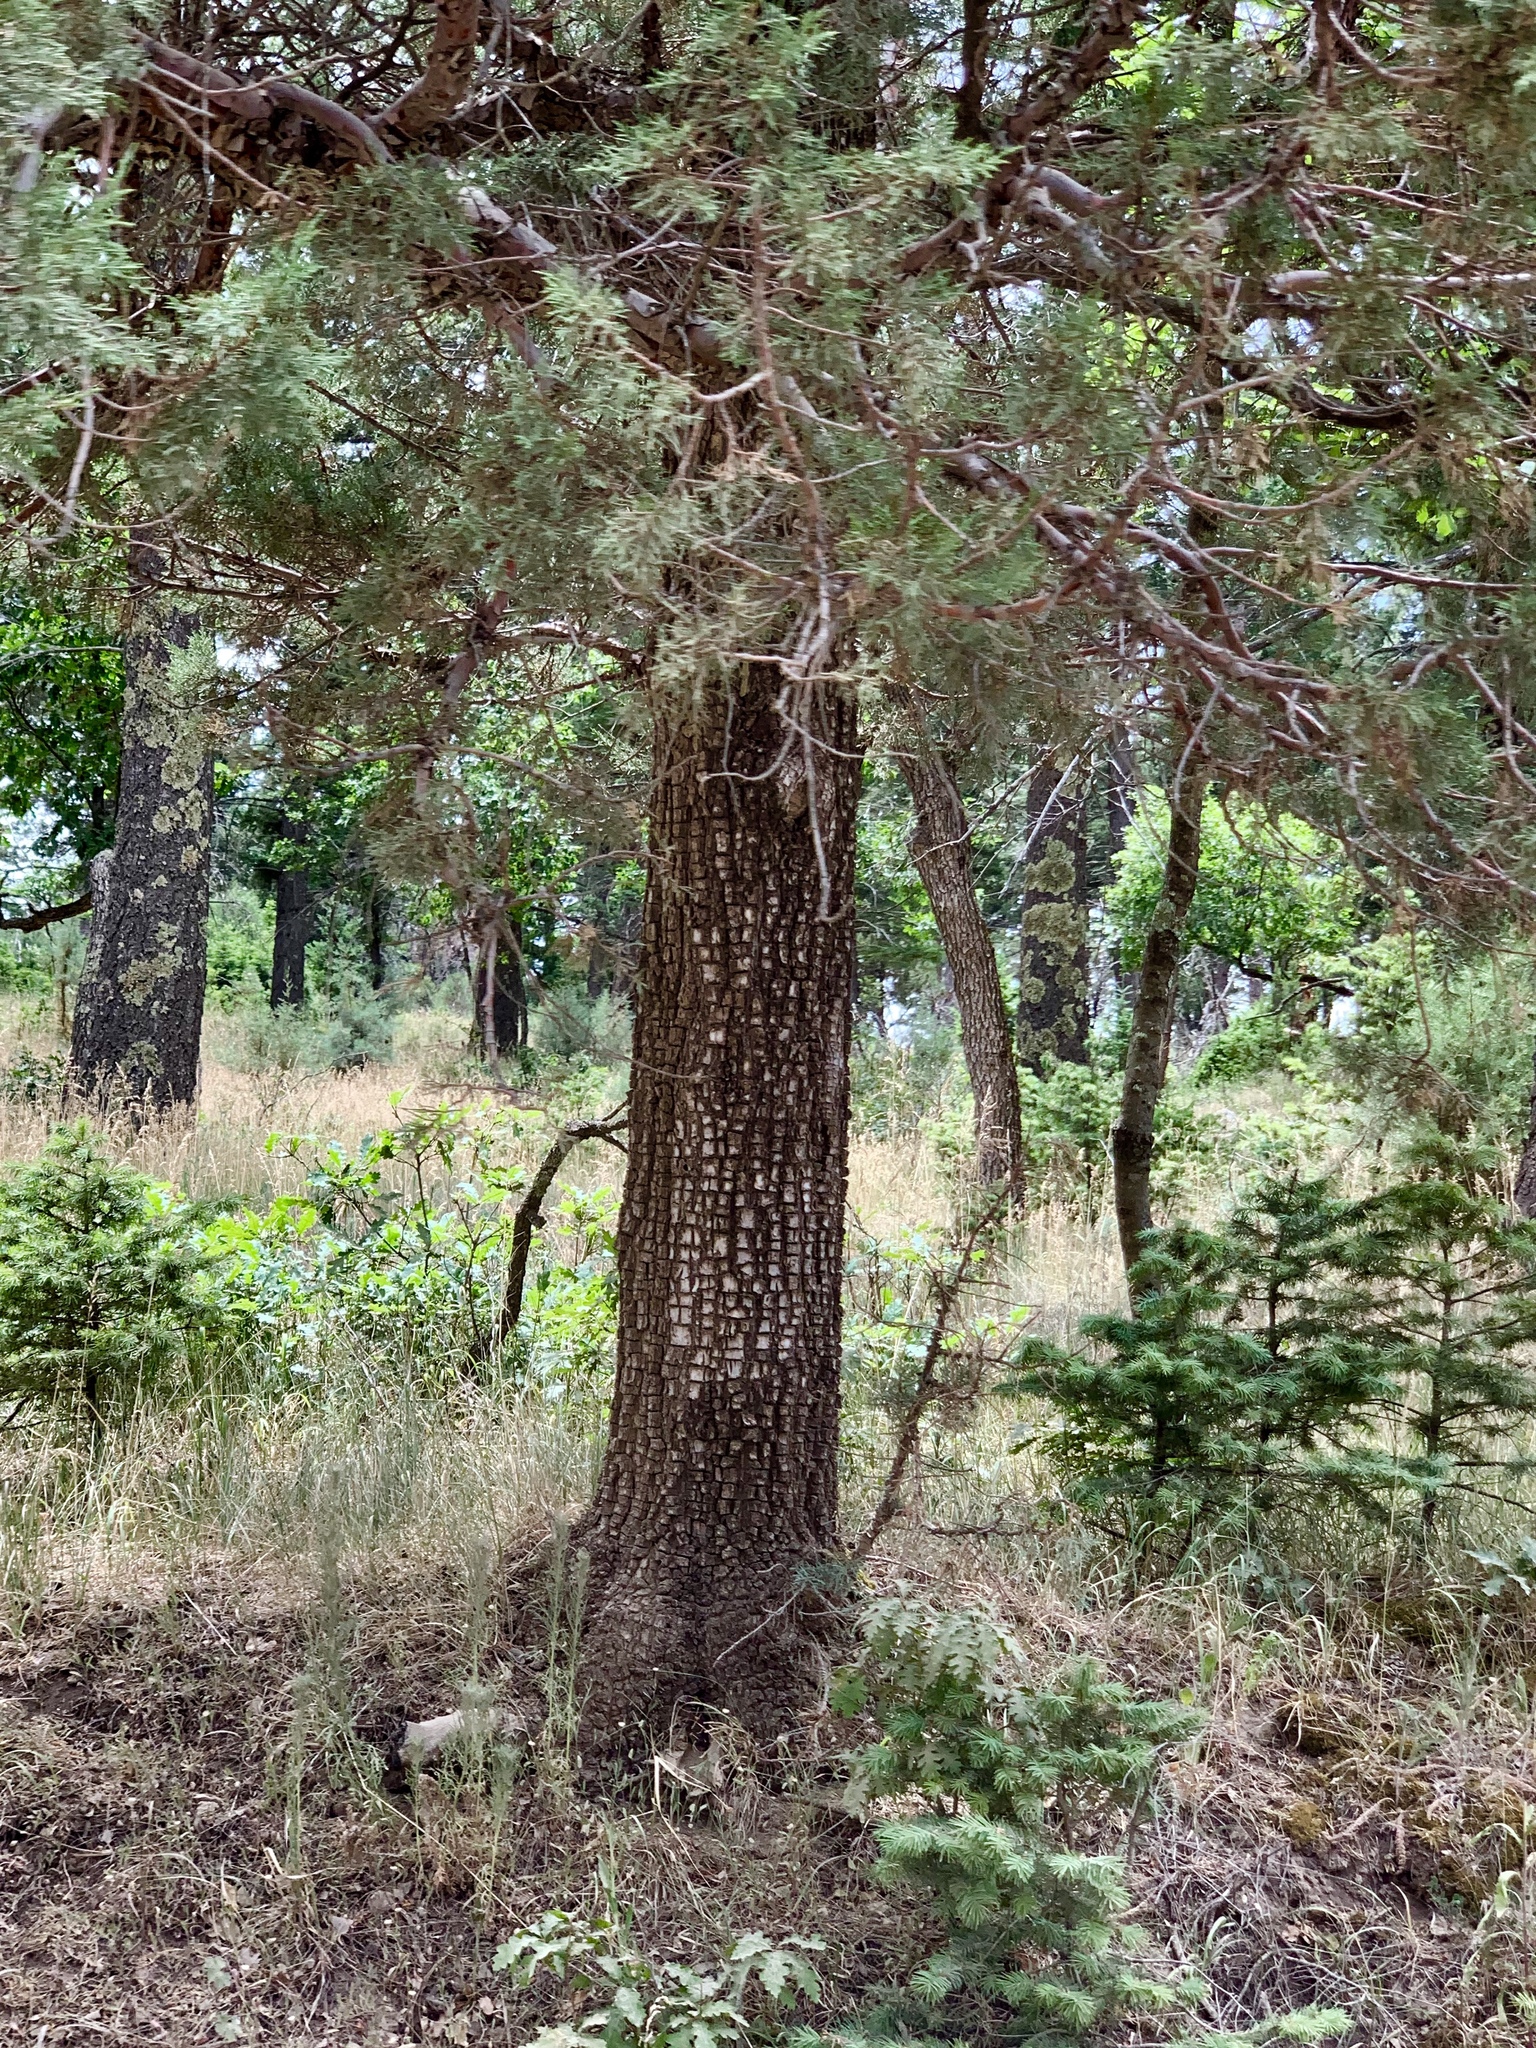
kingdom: Plantae
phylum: Tracheophyta
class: Pinopsida
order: Pinales
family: Cupressaceae
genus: Juniperus
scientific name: Juniperus deppeana
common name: Alligator juniper
